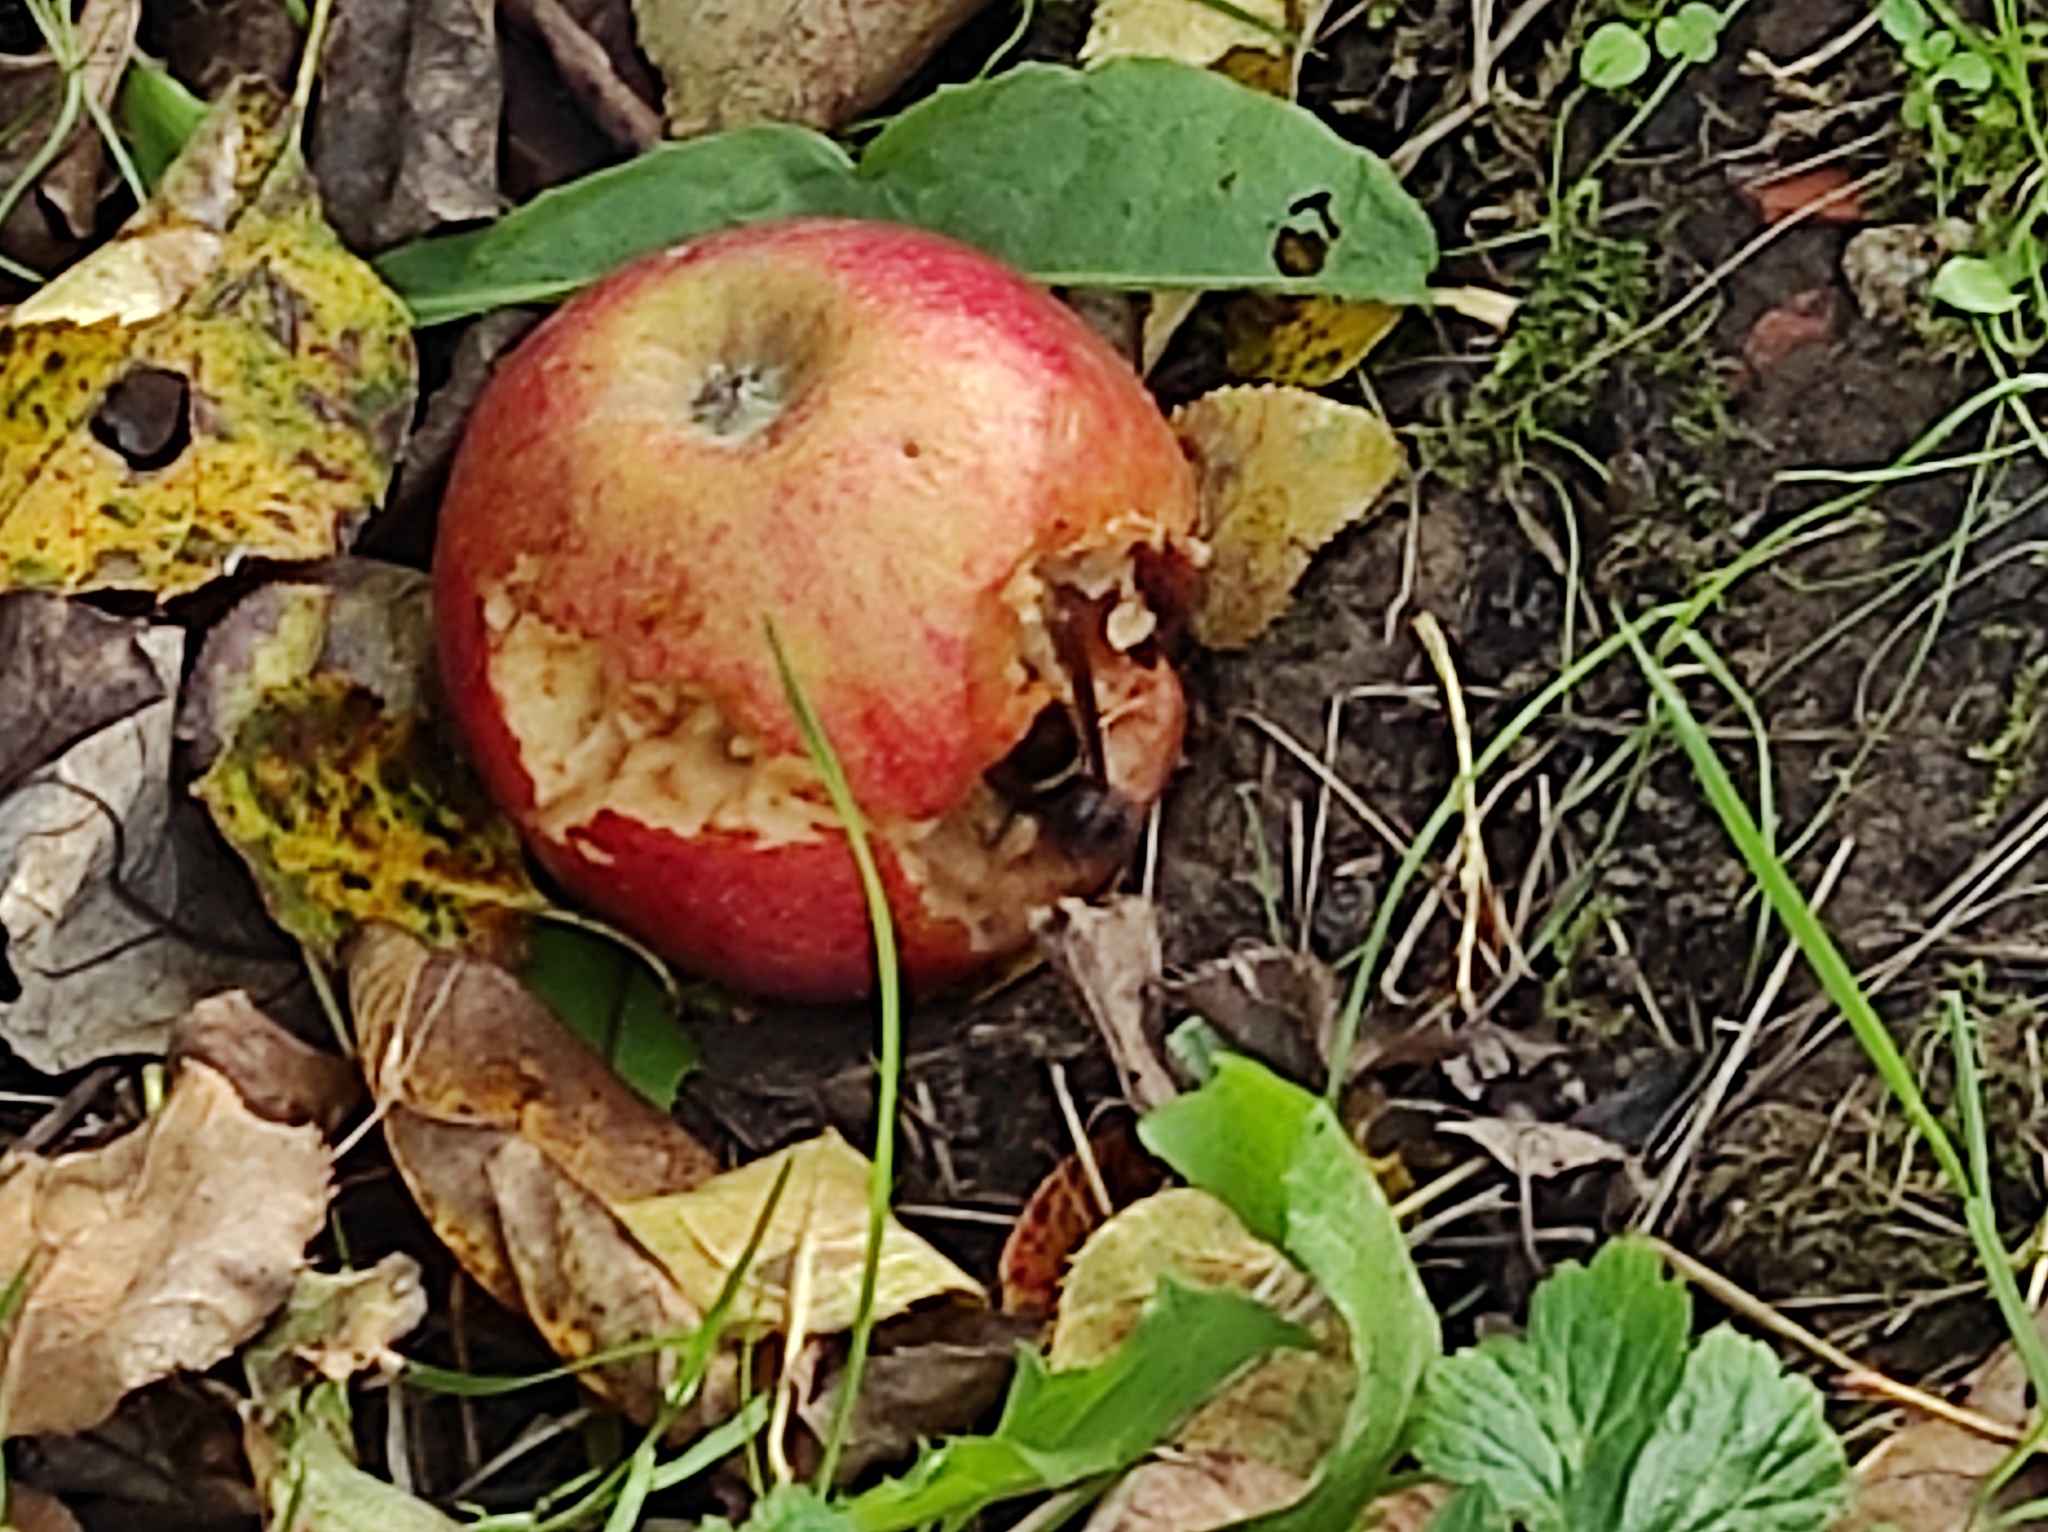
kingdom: Animalia
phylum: Arthropoda
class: Insecta
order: Hymenoptera
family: Vespidae
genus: Vespa
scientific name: Vespa velutina
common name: Asian hornet
